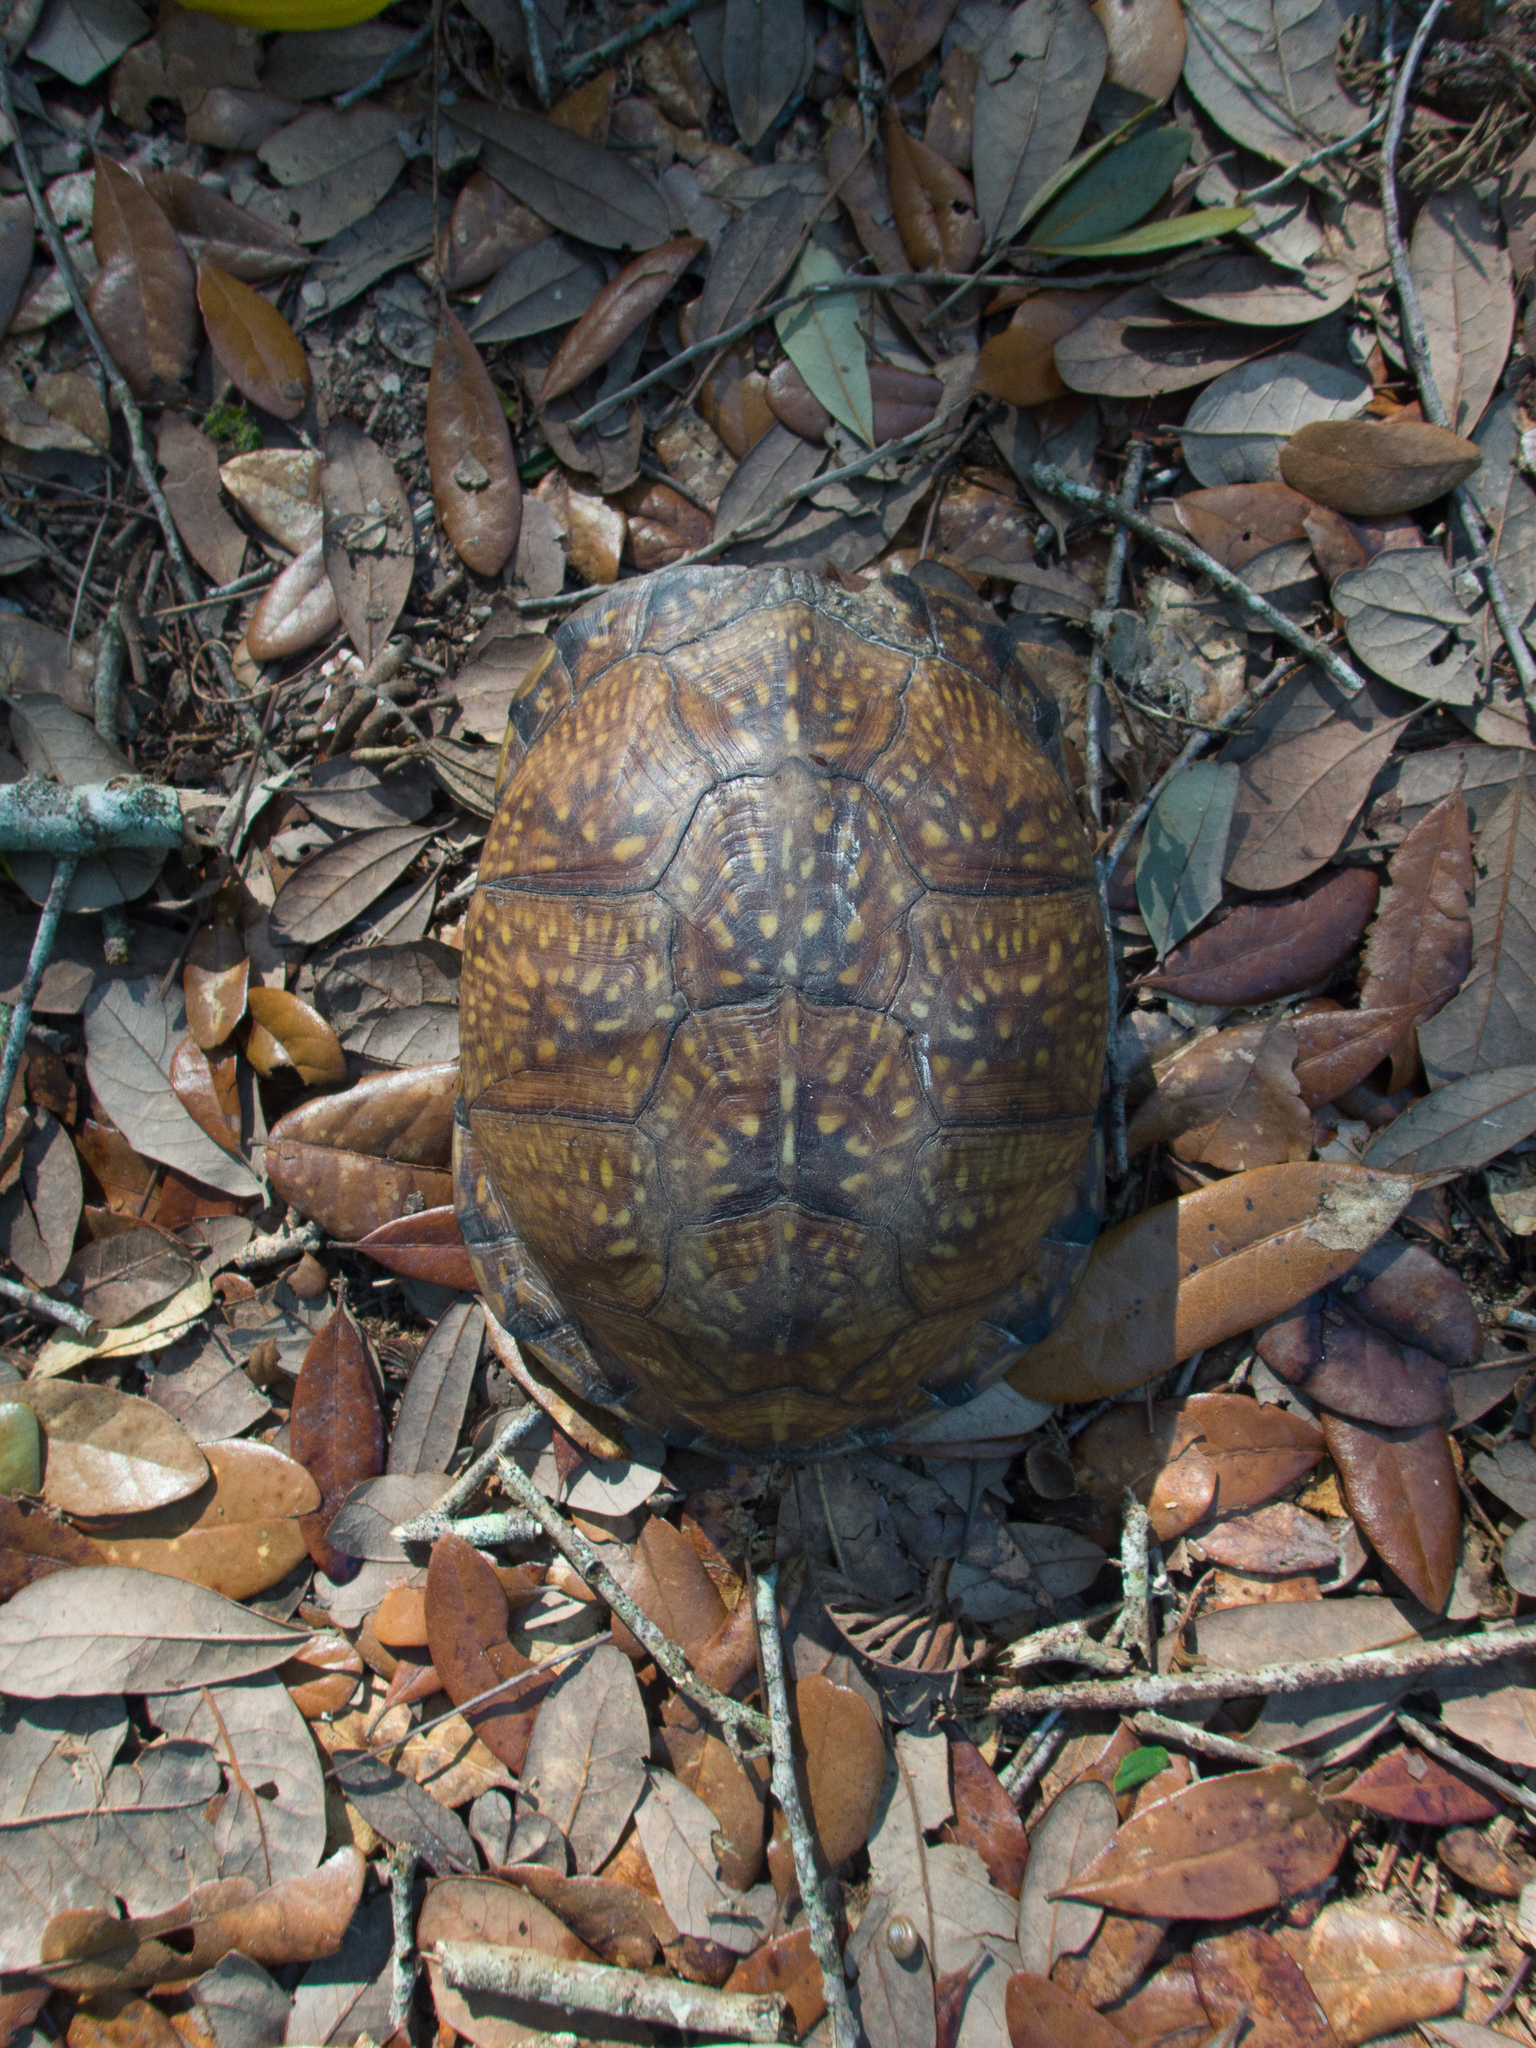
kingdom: Animalia
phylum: Chordata
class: Testudines
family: Emydidae
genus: Terrapene
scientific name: Terrapene carolina
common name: Common box turtle
